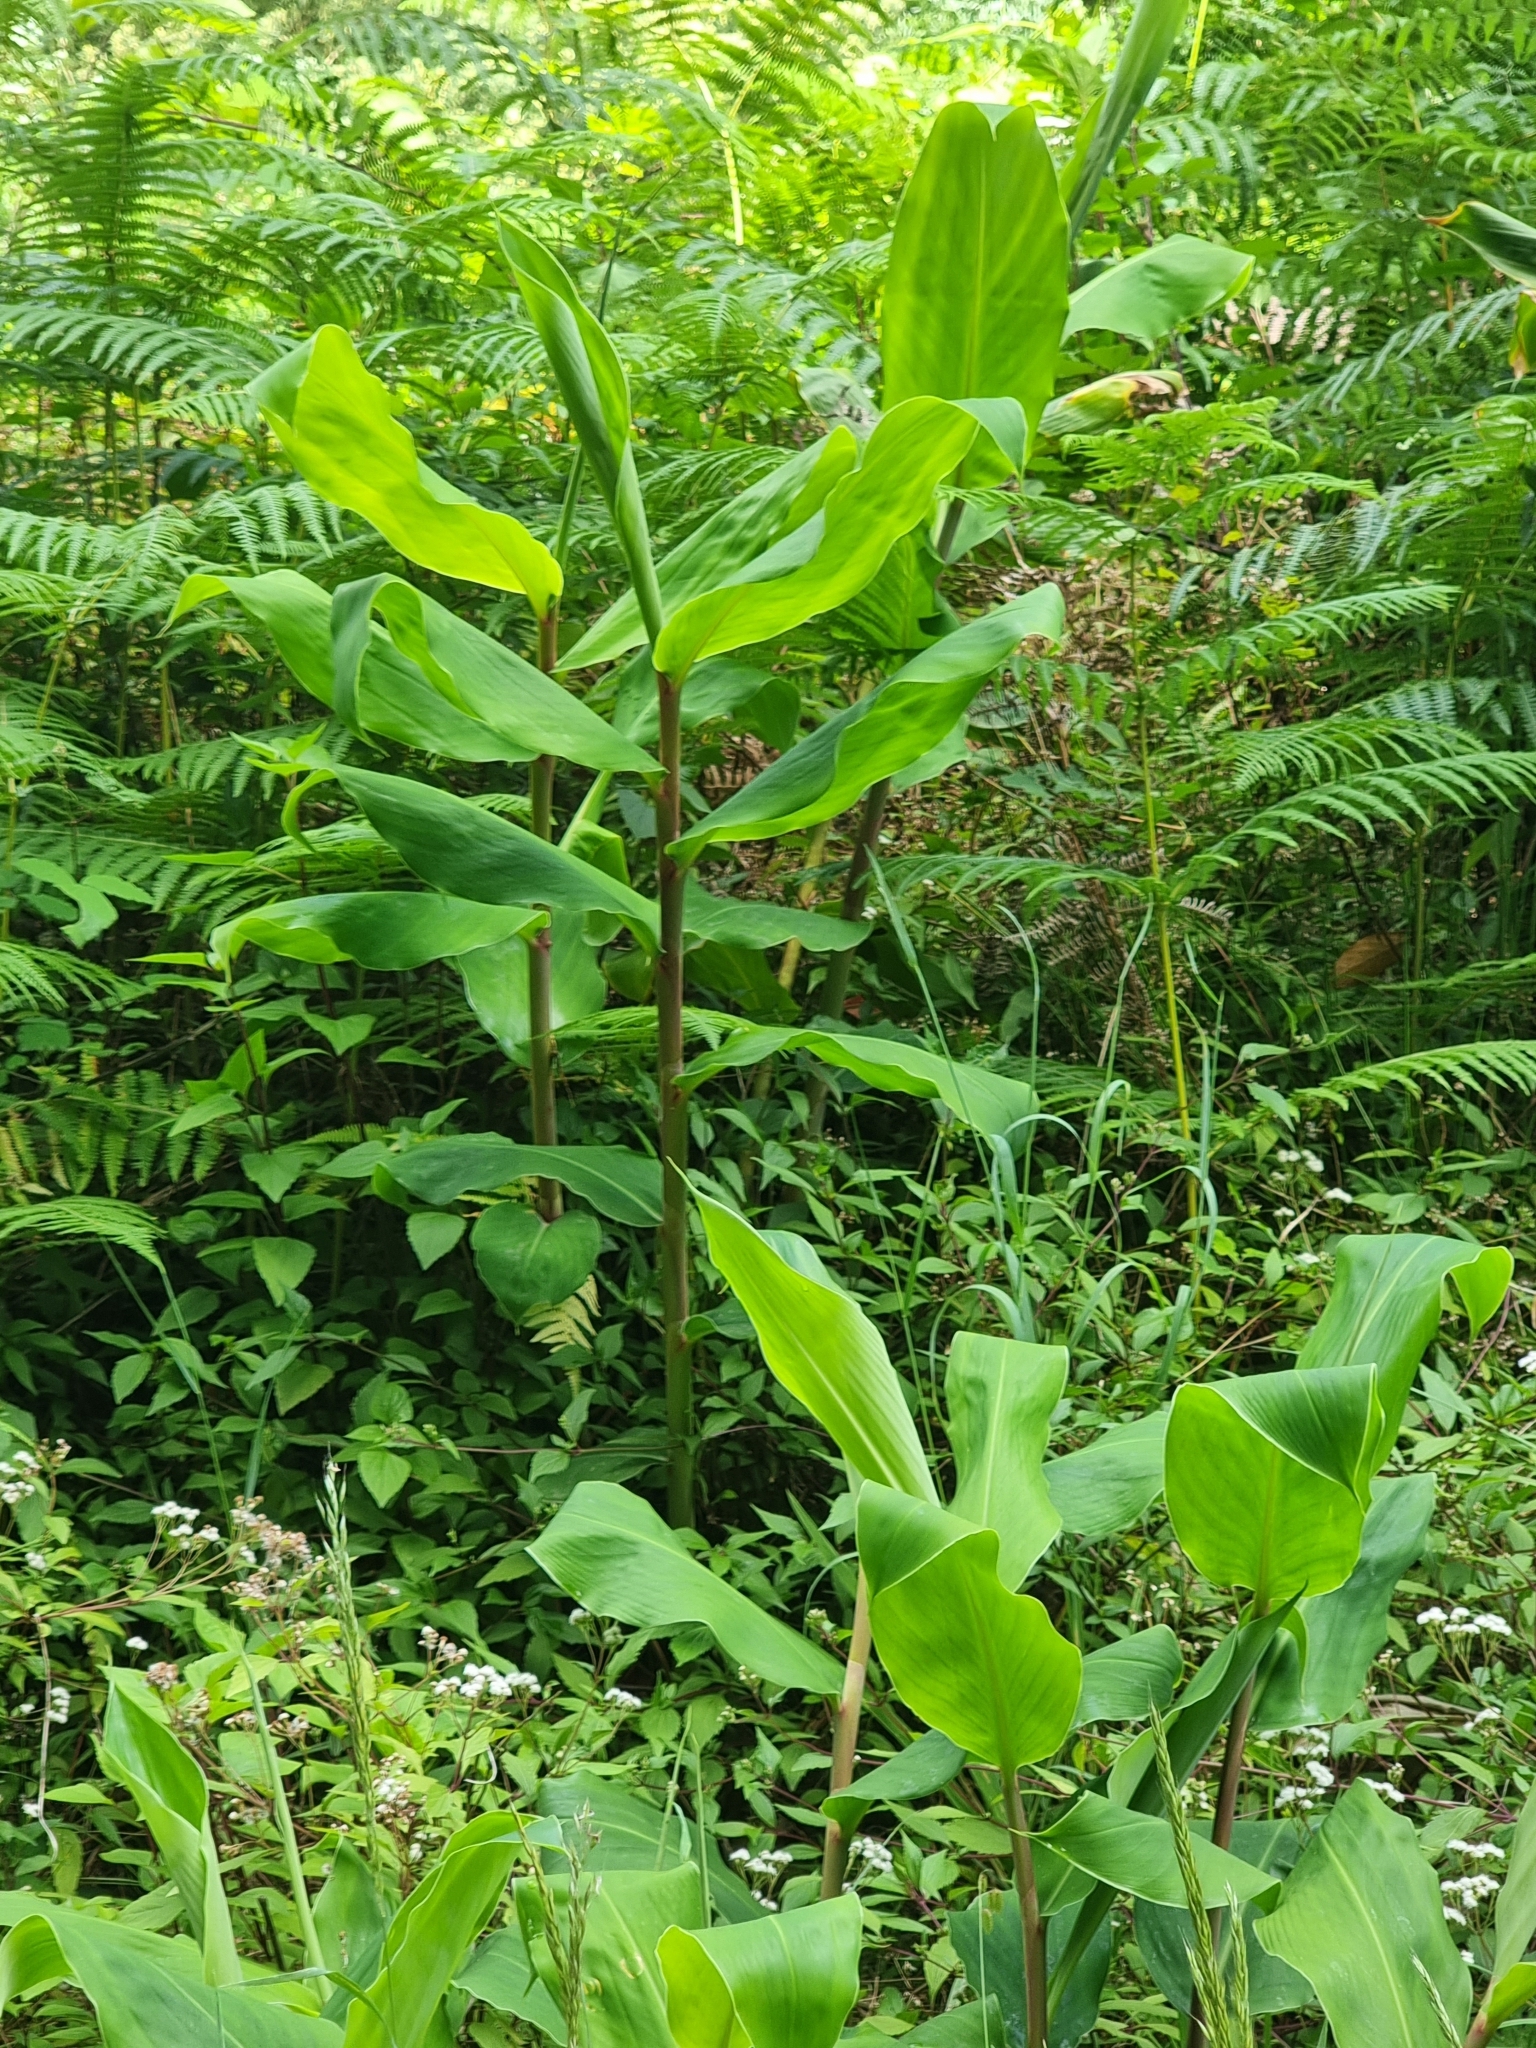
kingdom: Plantae
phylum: Tracheophyta
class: Liliopsida
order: Zingiberales
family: Cannaceae
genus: Canna
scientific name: Canna indica
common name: Indian shot
